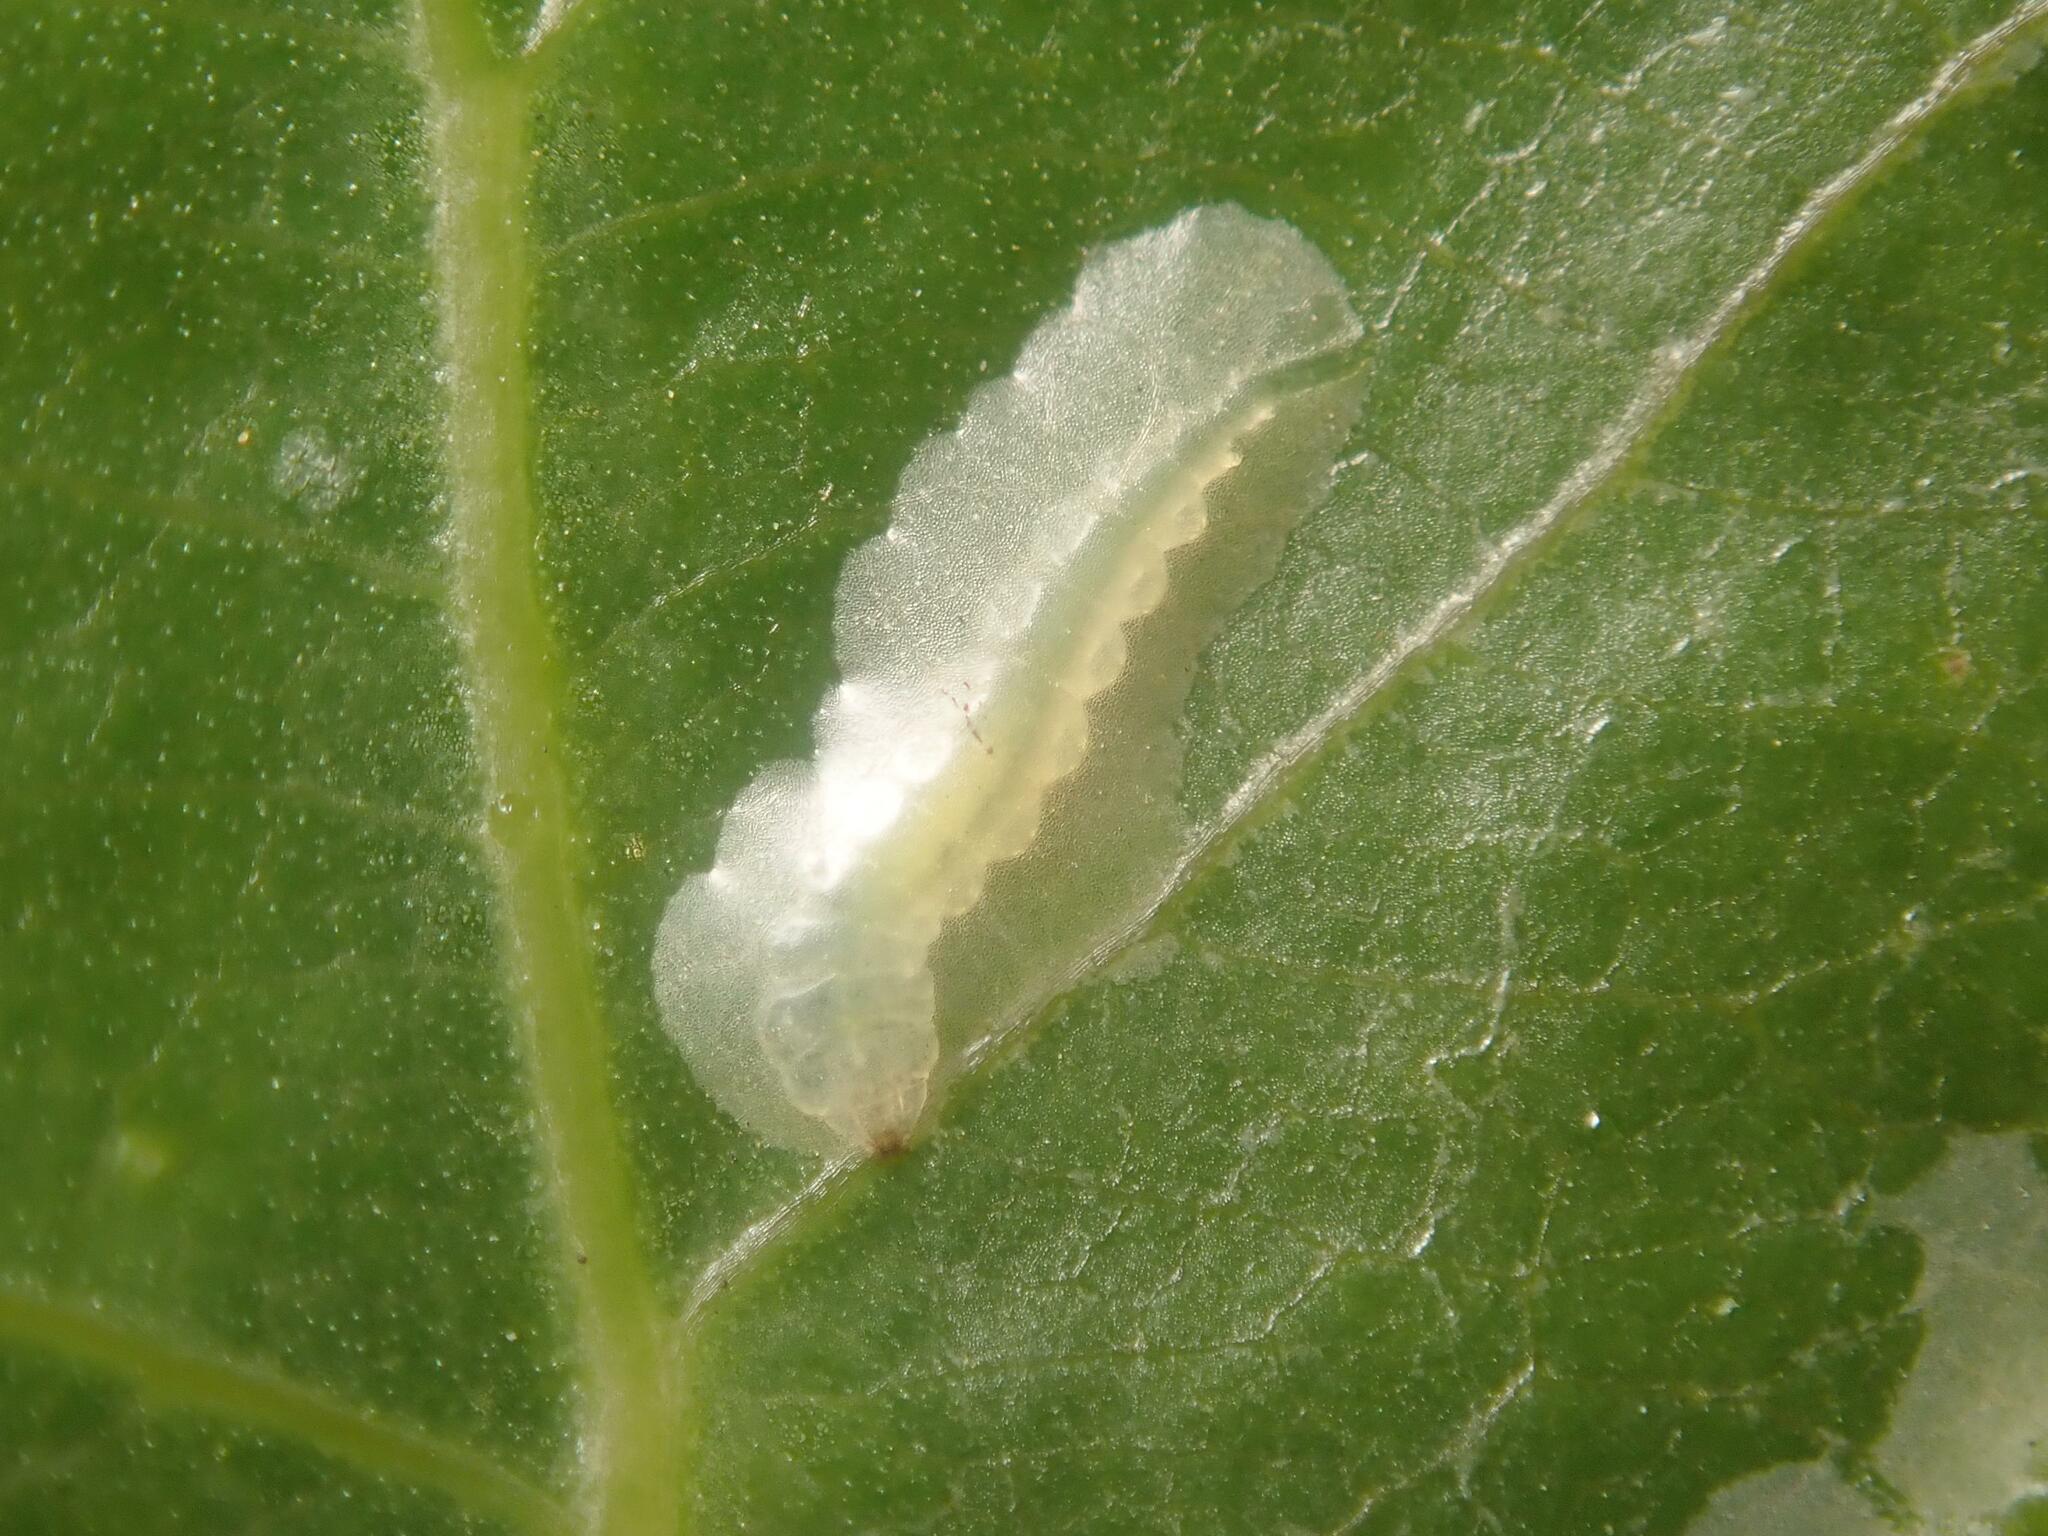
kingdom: Animalia
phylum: Arthropoda
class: Insecta
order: Lepidoptera
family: Gracillariidae
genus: Phyllocnistis
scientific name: Phyllocnistis unipunctella
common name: Poplar bent-wing
